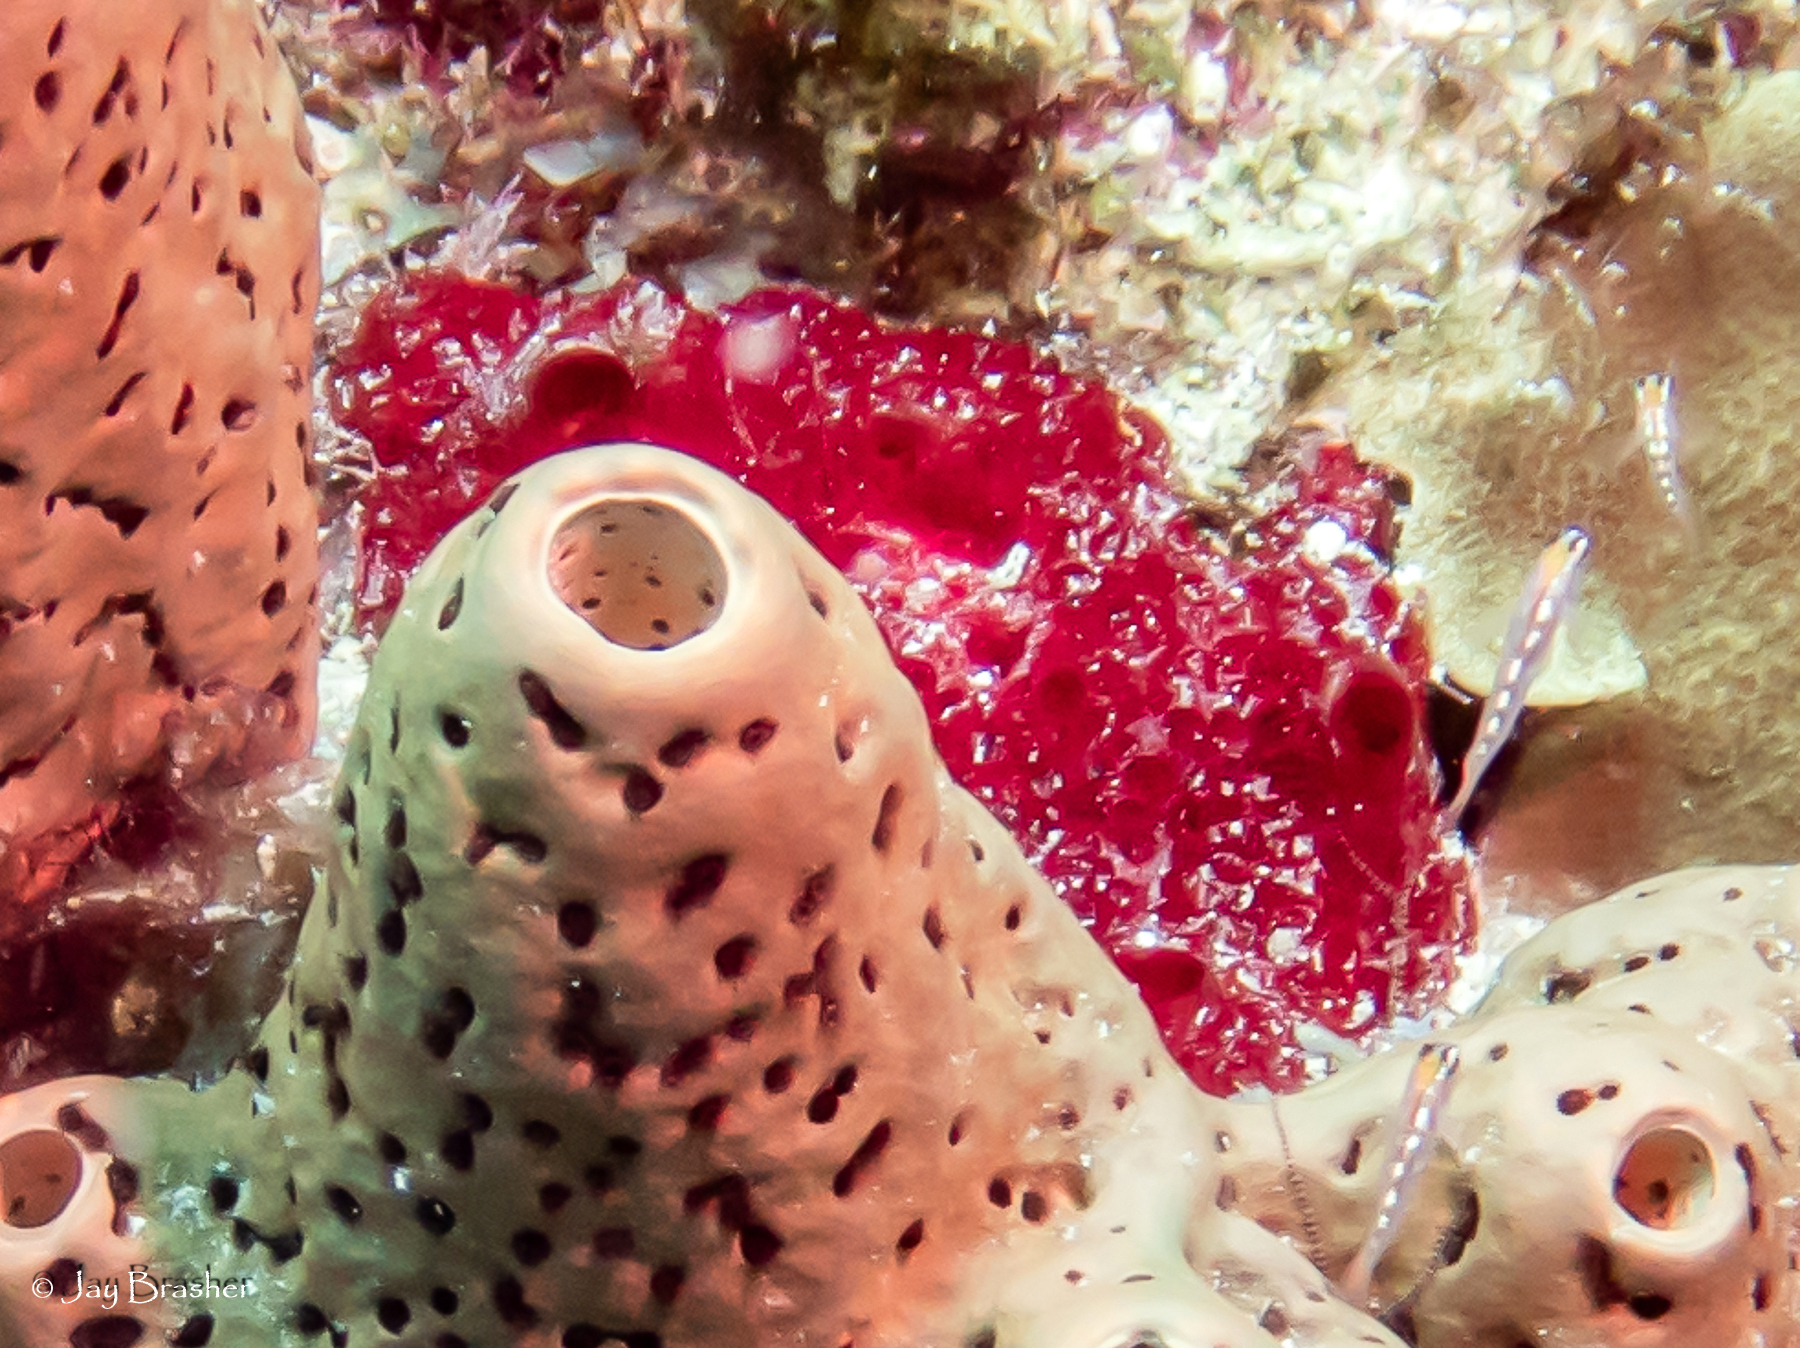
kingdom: Animalia
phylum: Porifera
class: Demospongiae
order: Poecilosclerida
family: Hymedesmiidae
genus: Phorbas
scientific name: Phorbas amaranthus
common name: Red sieve encrusting sponge
